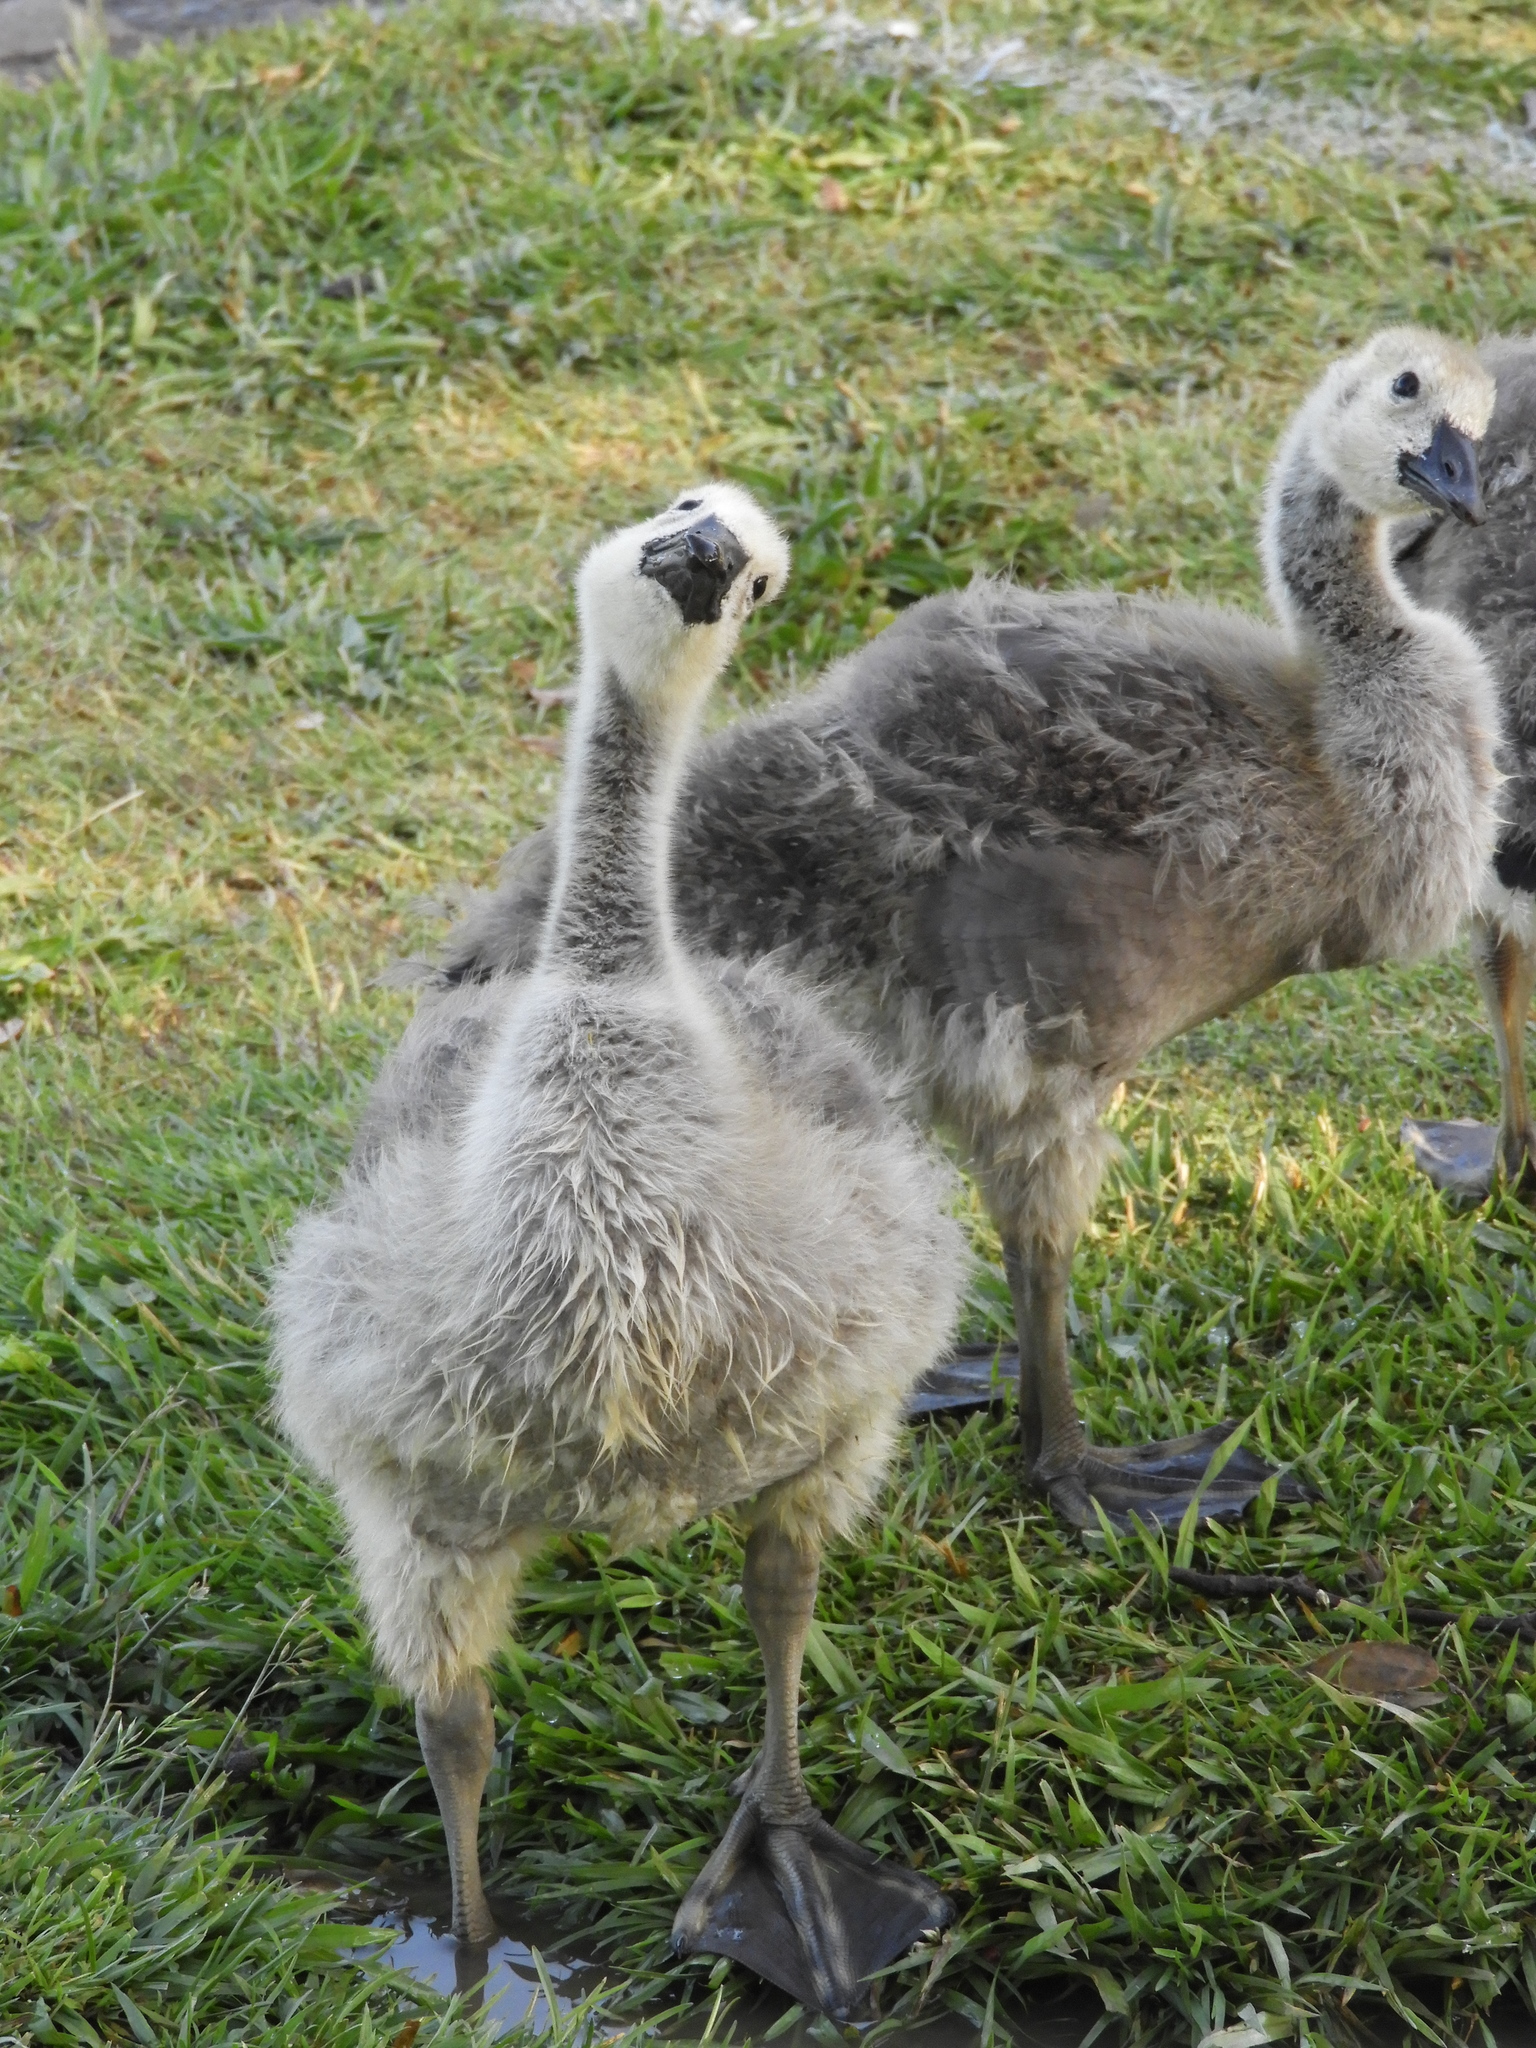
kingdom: Animalia
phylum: Chordata
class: Aves
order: Anseriformes
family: Anatidae
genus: Branta
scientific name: Branta canadensis
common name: Canada goose
